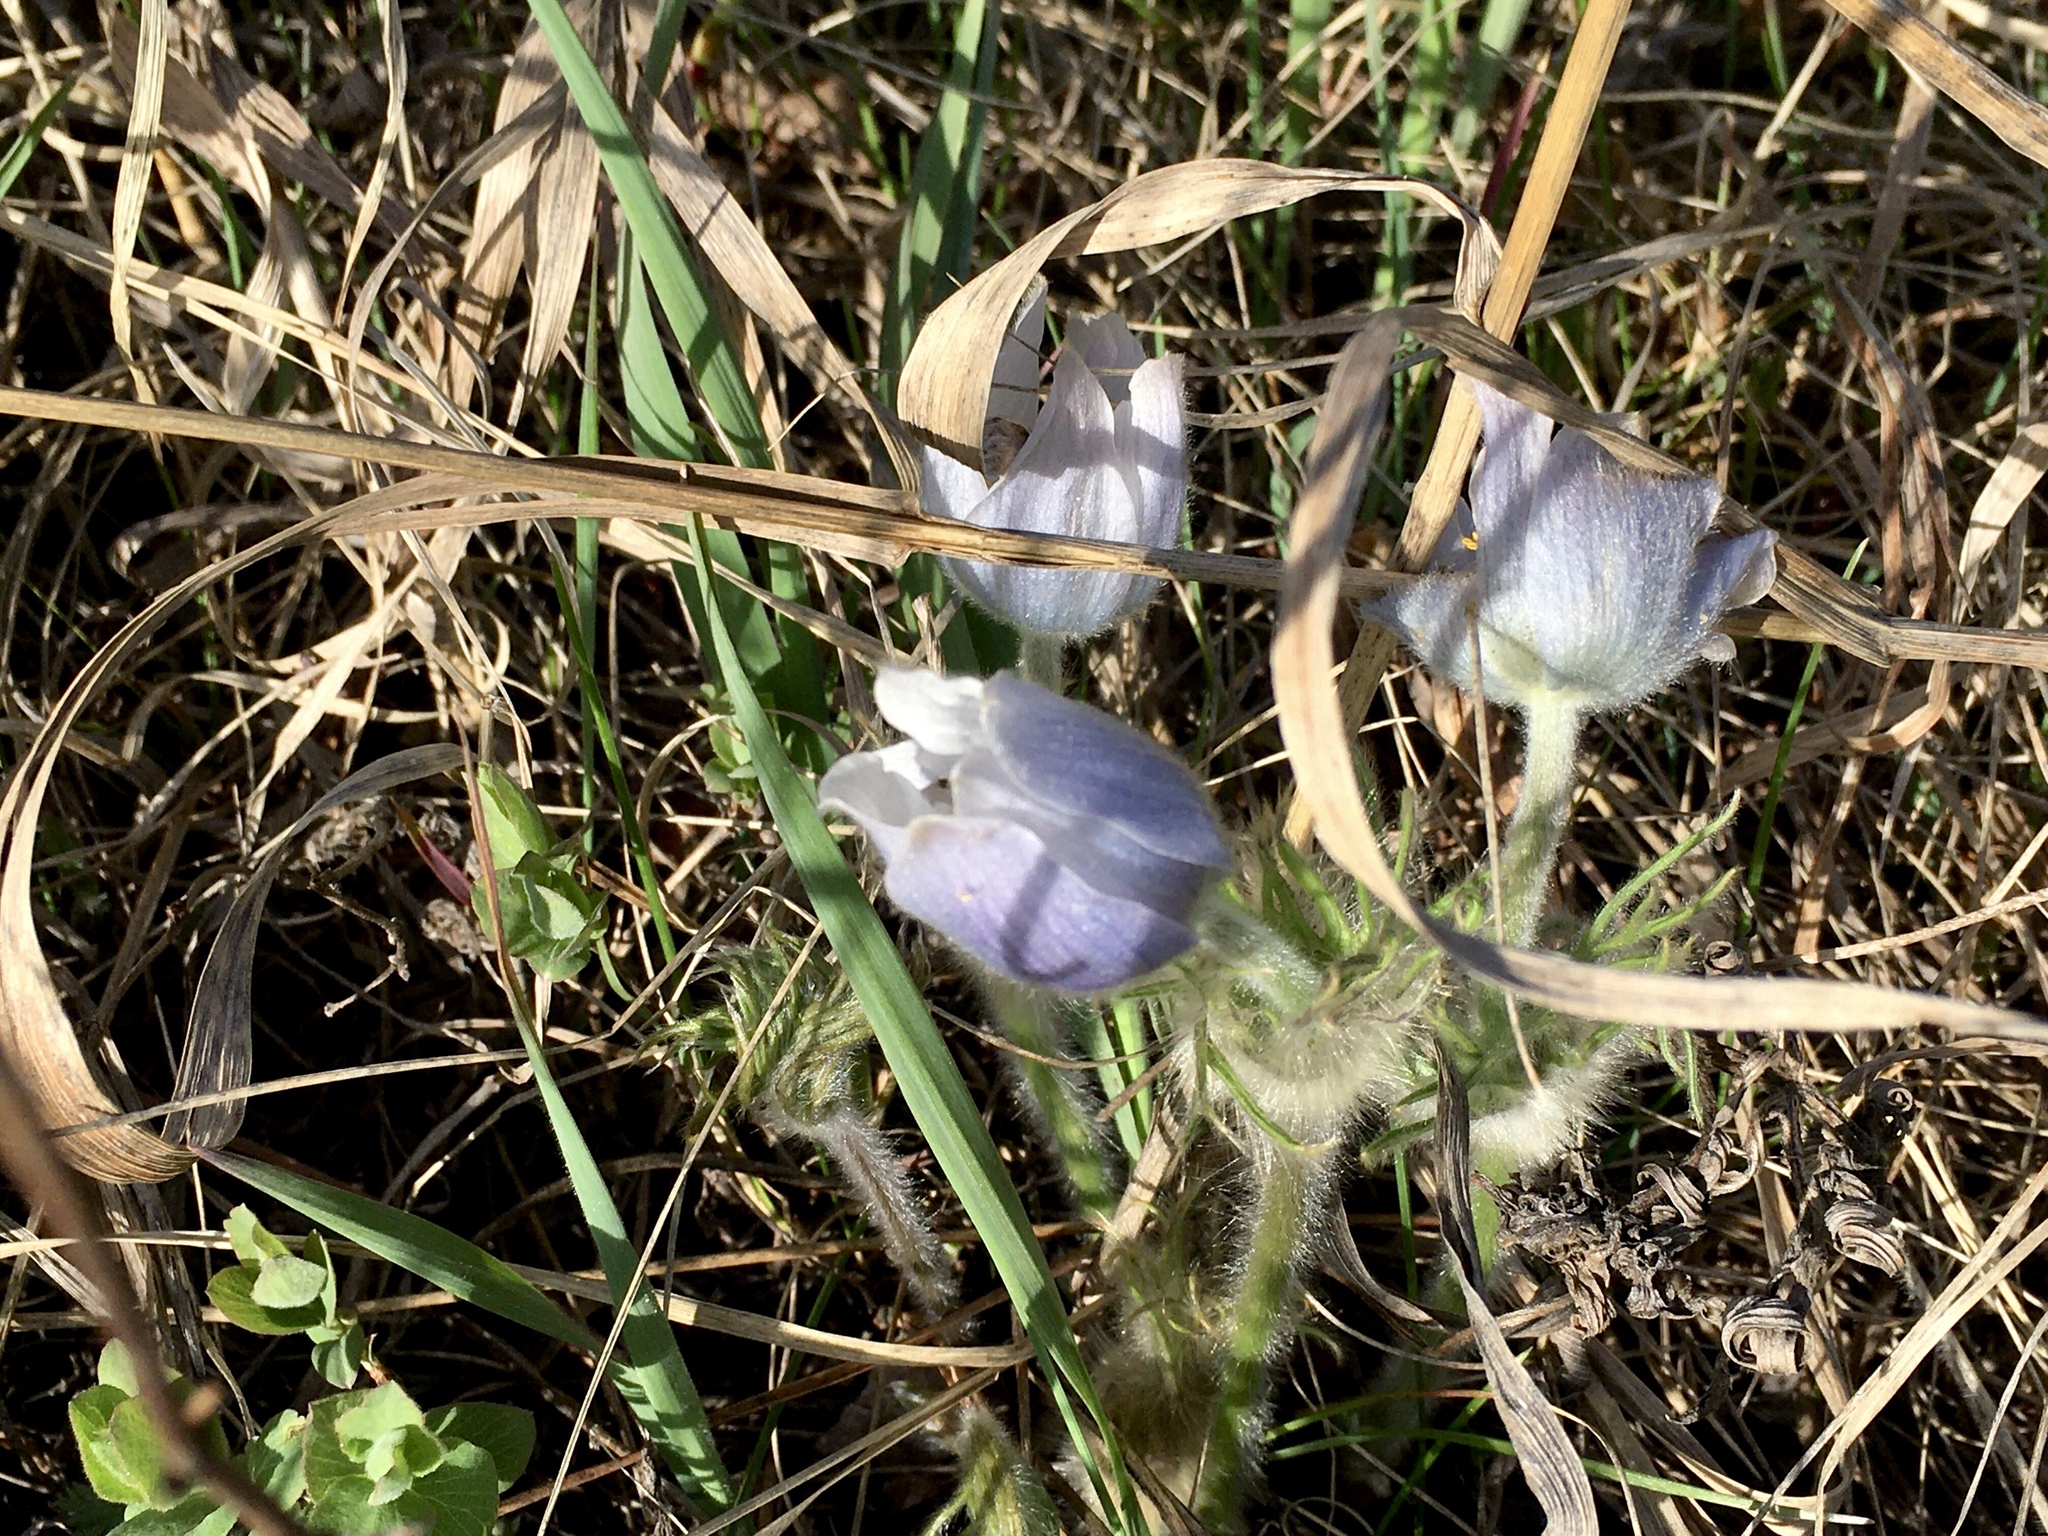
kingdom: Plantae
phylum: Tracheophyta
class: Magnoliopsida
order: Ranunculales
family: Ranunculaceae
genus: Pulsatilla
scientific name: Pulsatilla nuttalliana
